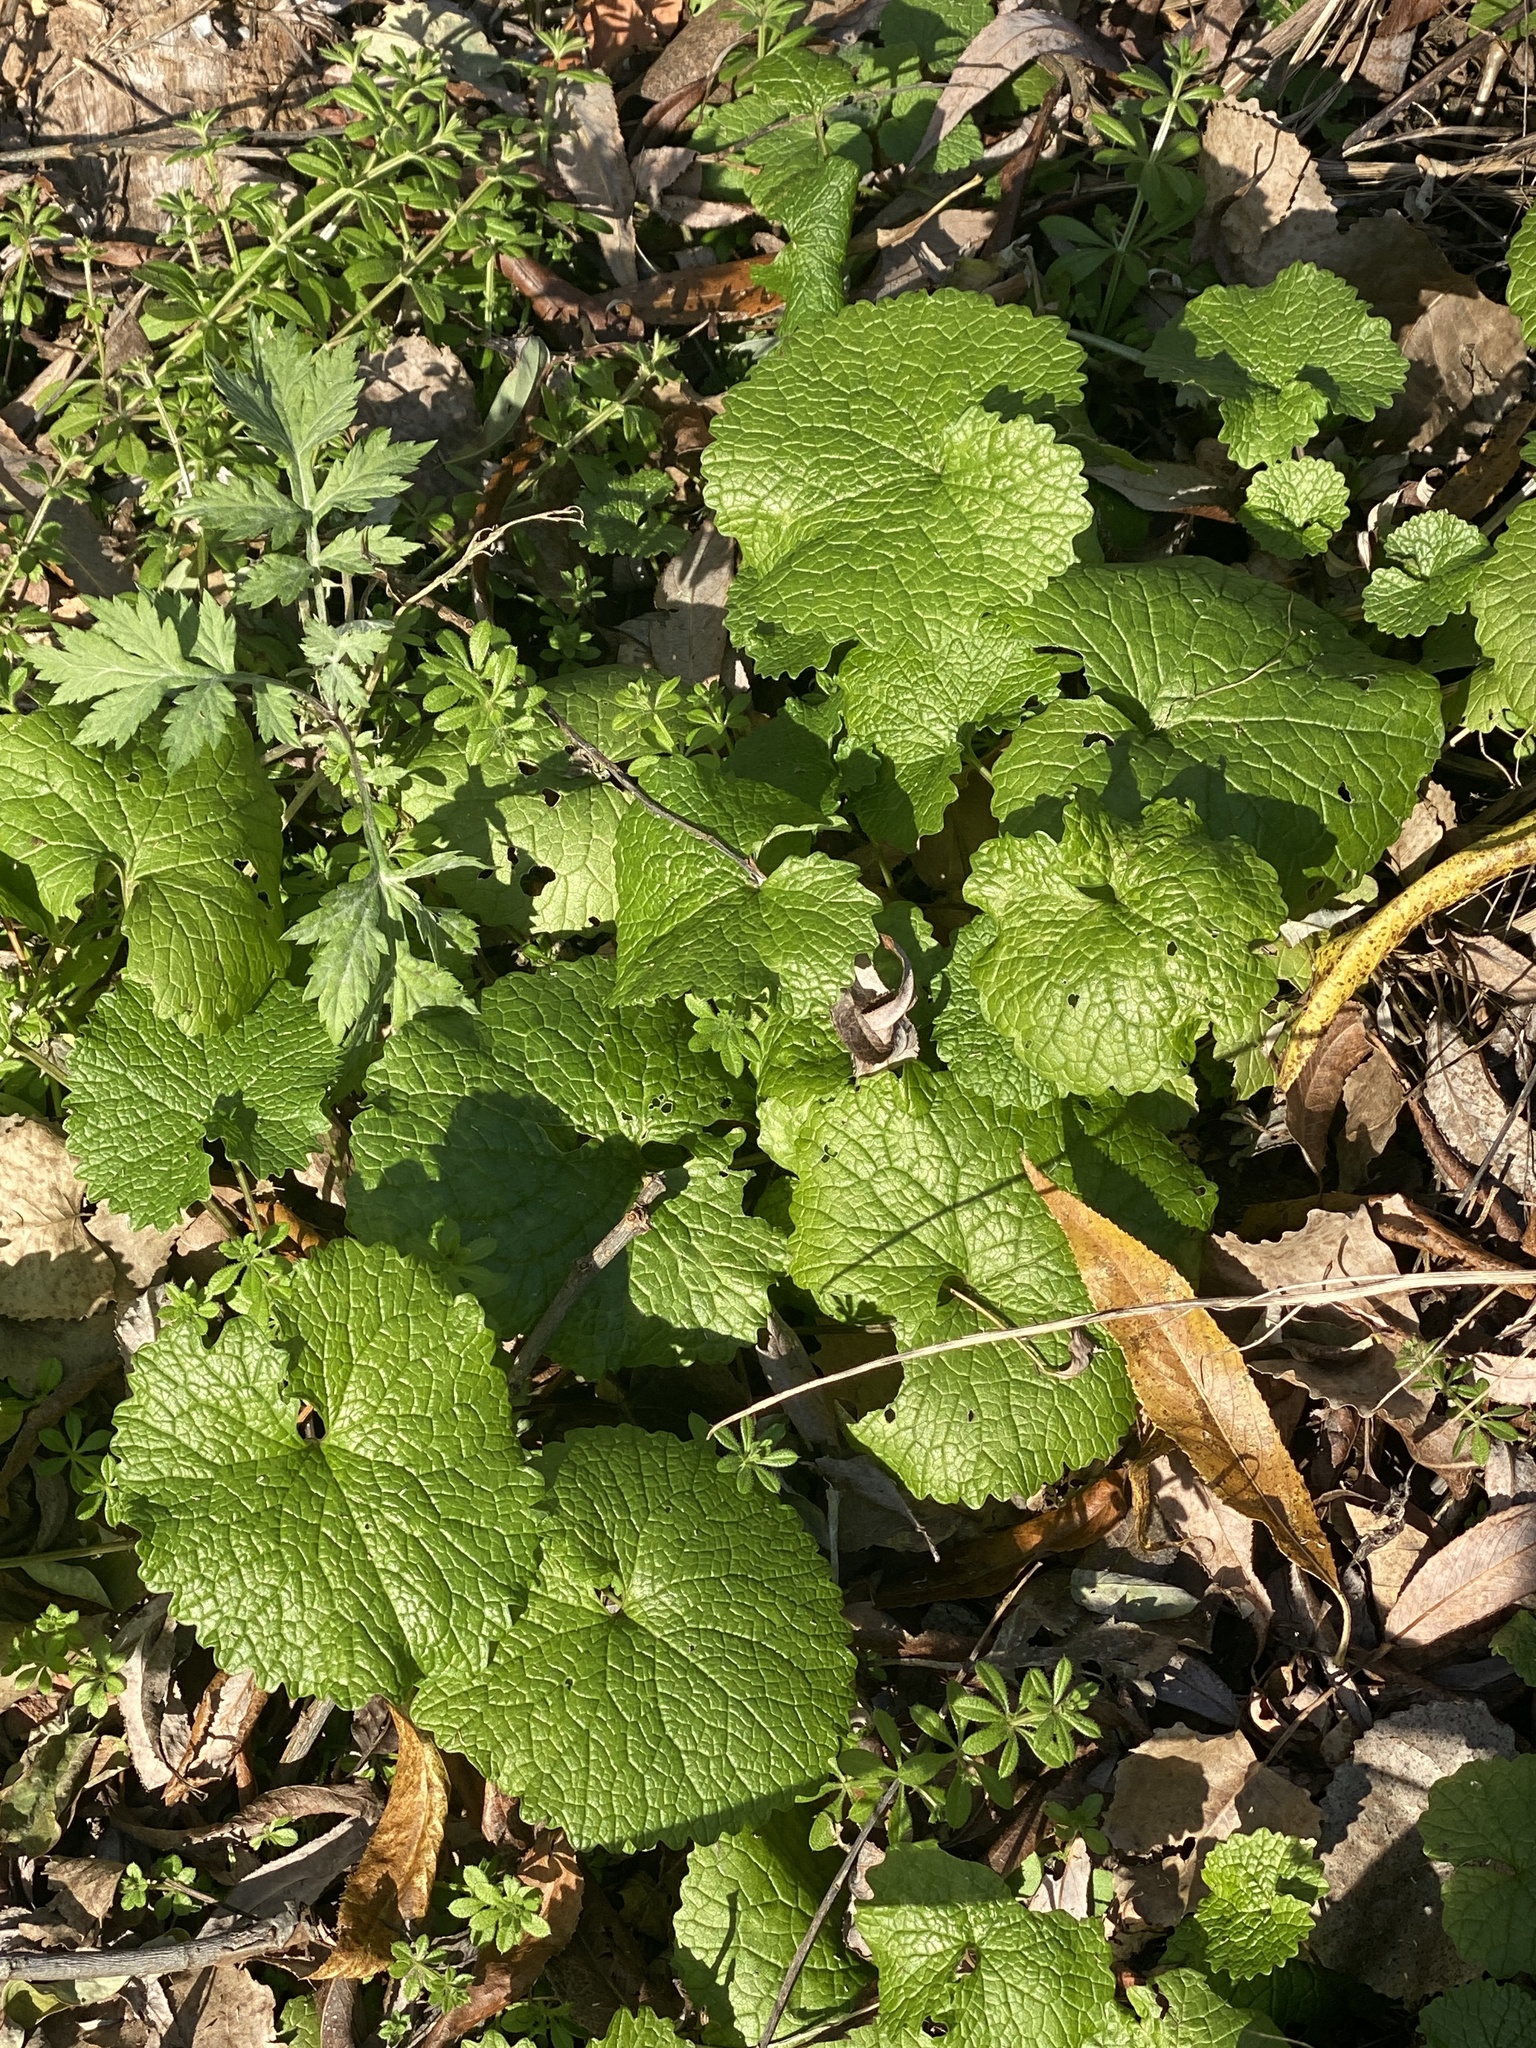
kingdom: Plantae
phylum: Tracheophyta
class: Magnoliopsida
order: Brassicales
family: Brassicaceae
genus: Alliaria
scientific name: Alliaria petiolata
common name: Garlic mustard
